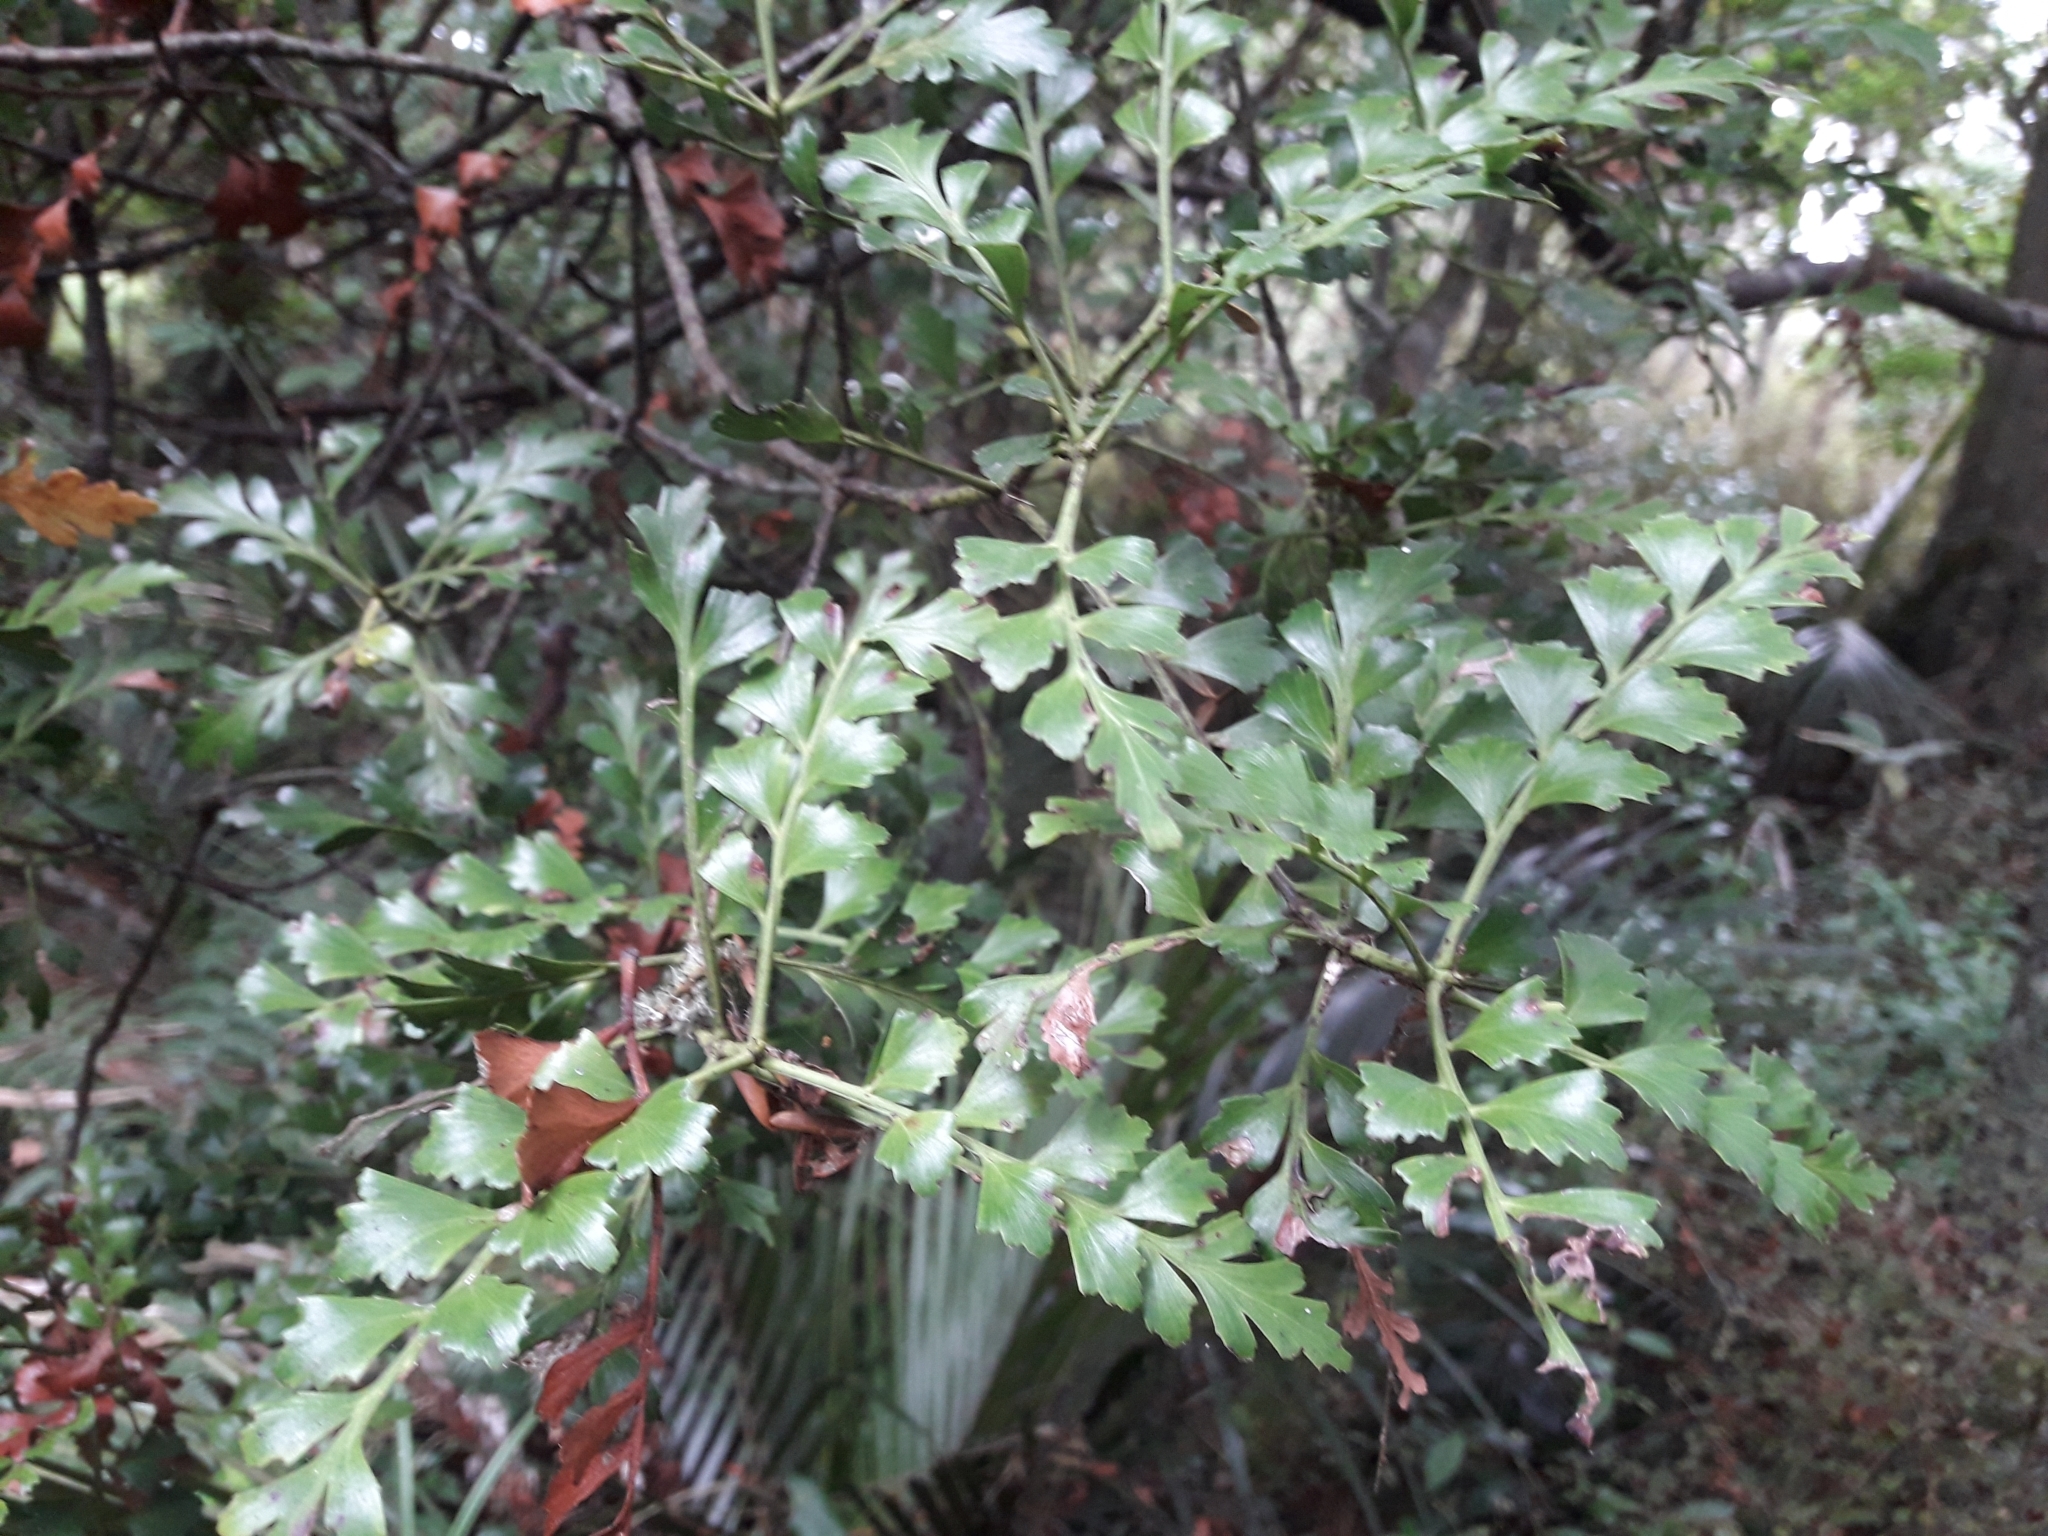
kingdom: Plantae
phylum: Tracheophyta
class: Pinopsida
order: Pinales
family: Phyllocladaceae
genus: Phyllocladus
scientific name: Phyllocladus trichomanoides
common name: Celery pine
